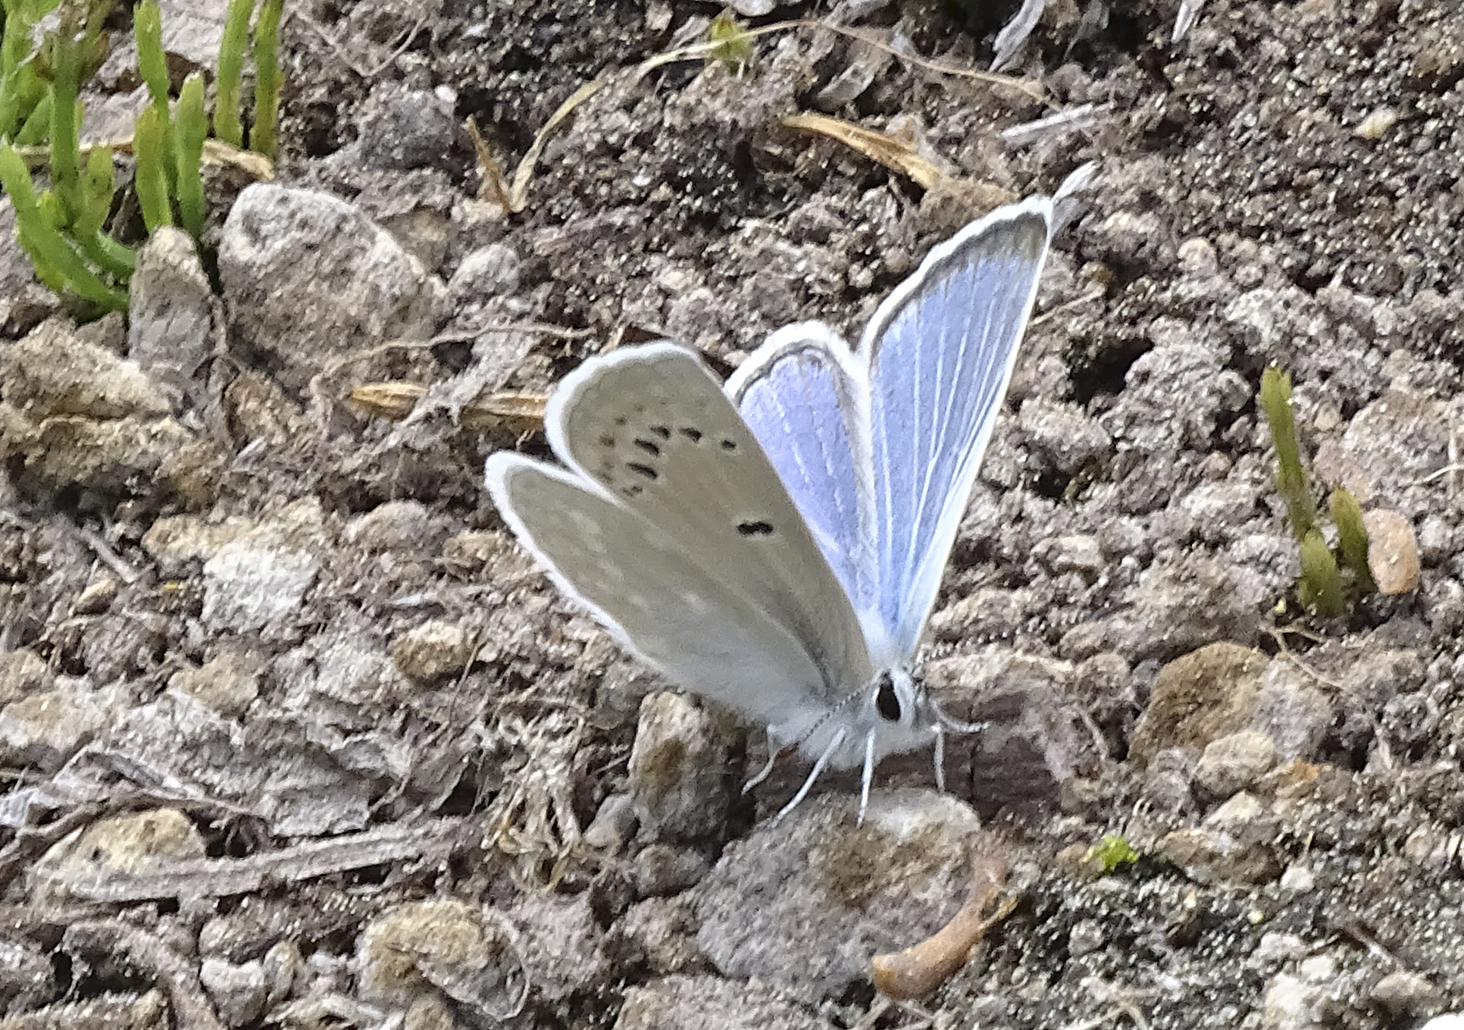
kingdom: Animalia
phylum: Arthropoda
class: Insecta
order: Lepidoptera
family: Lycaenidae
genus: Icaricia
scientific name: Icaricia icarioides
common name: Boisduval's blue
